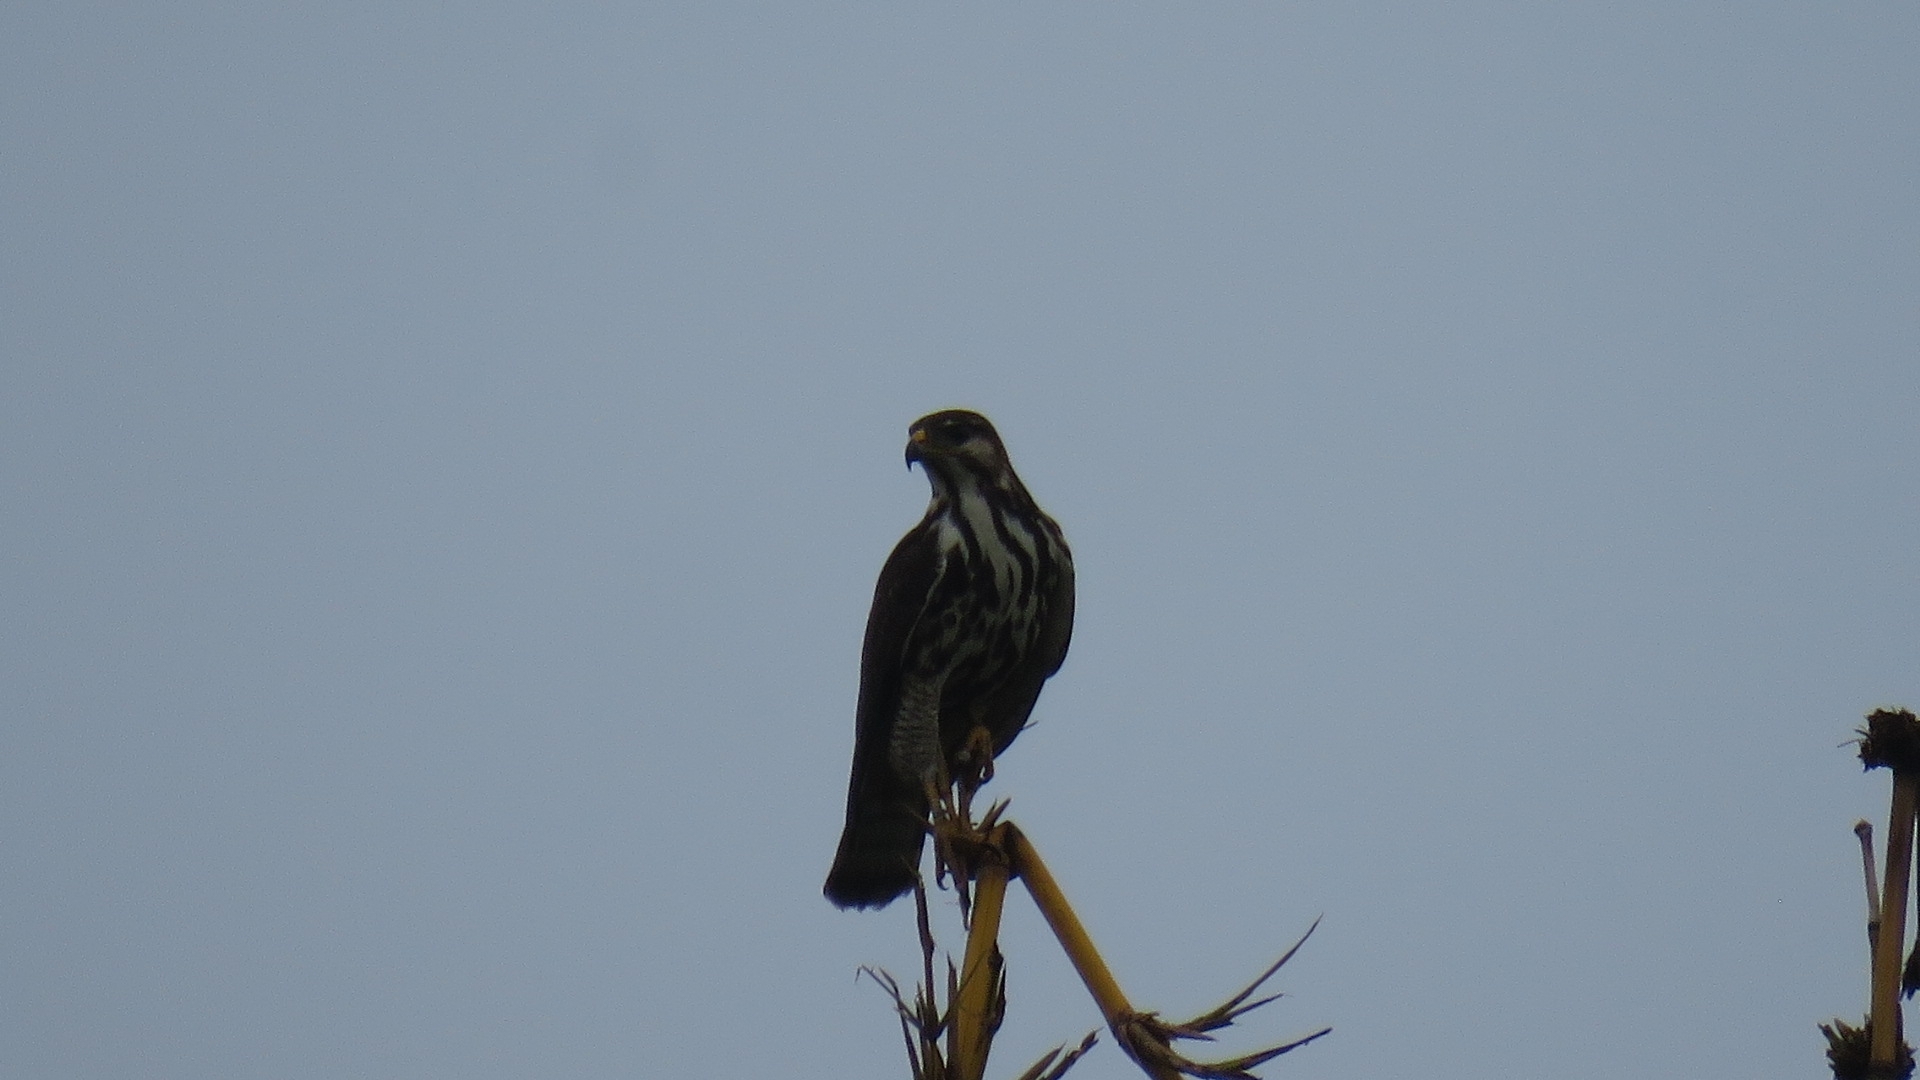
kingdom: Animalia
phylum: Chordata
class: Aves
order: Accipitriformes
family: Accipitridae
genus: Buteo
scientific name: Buteo nitidus
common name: Grey-lined hawk
